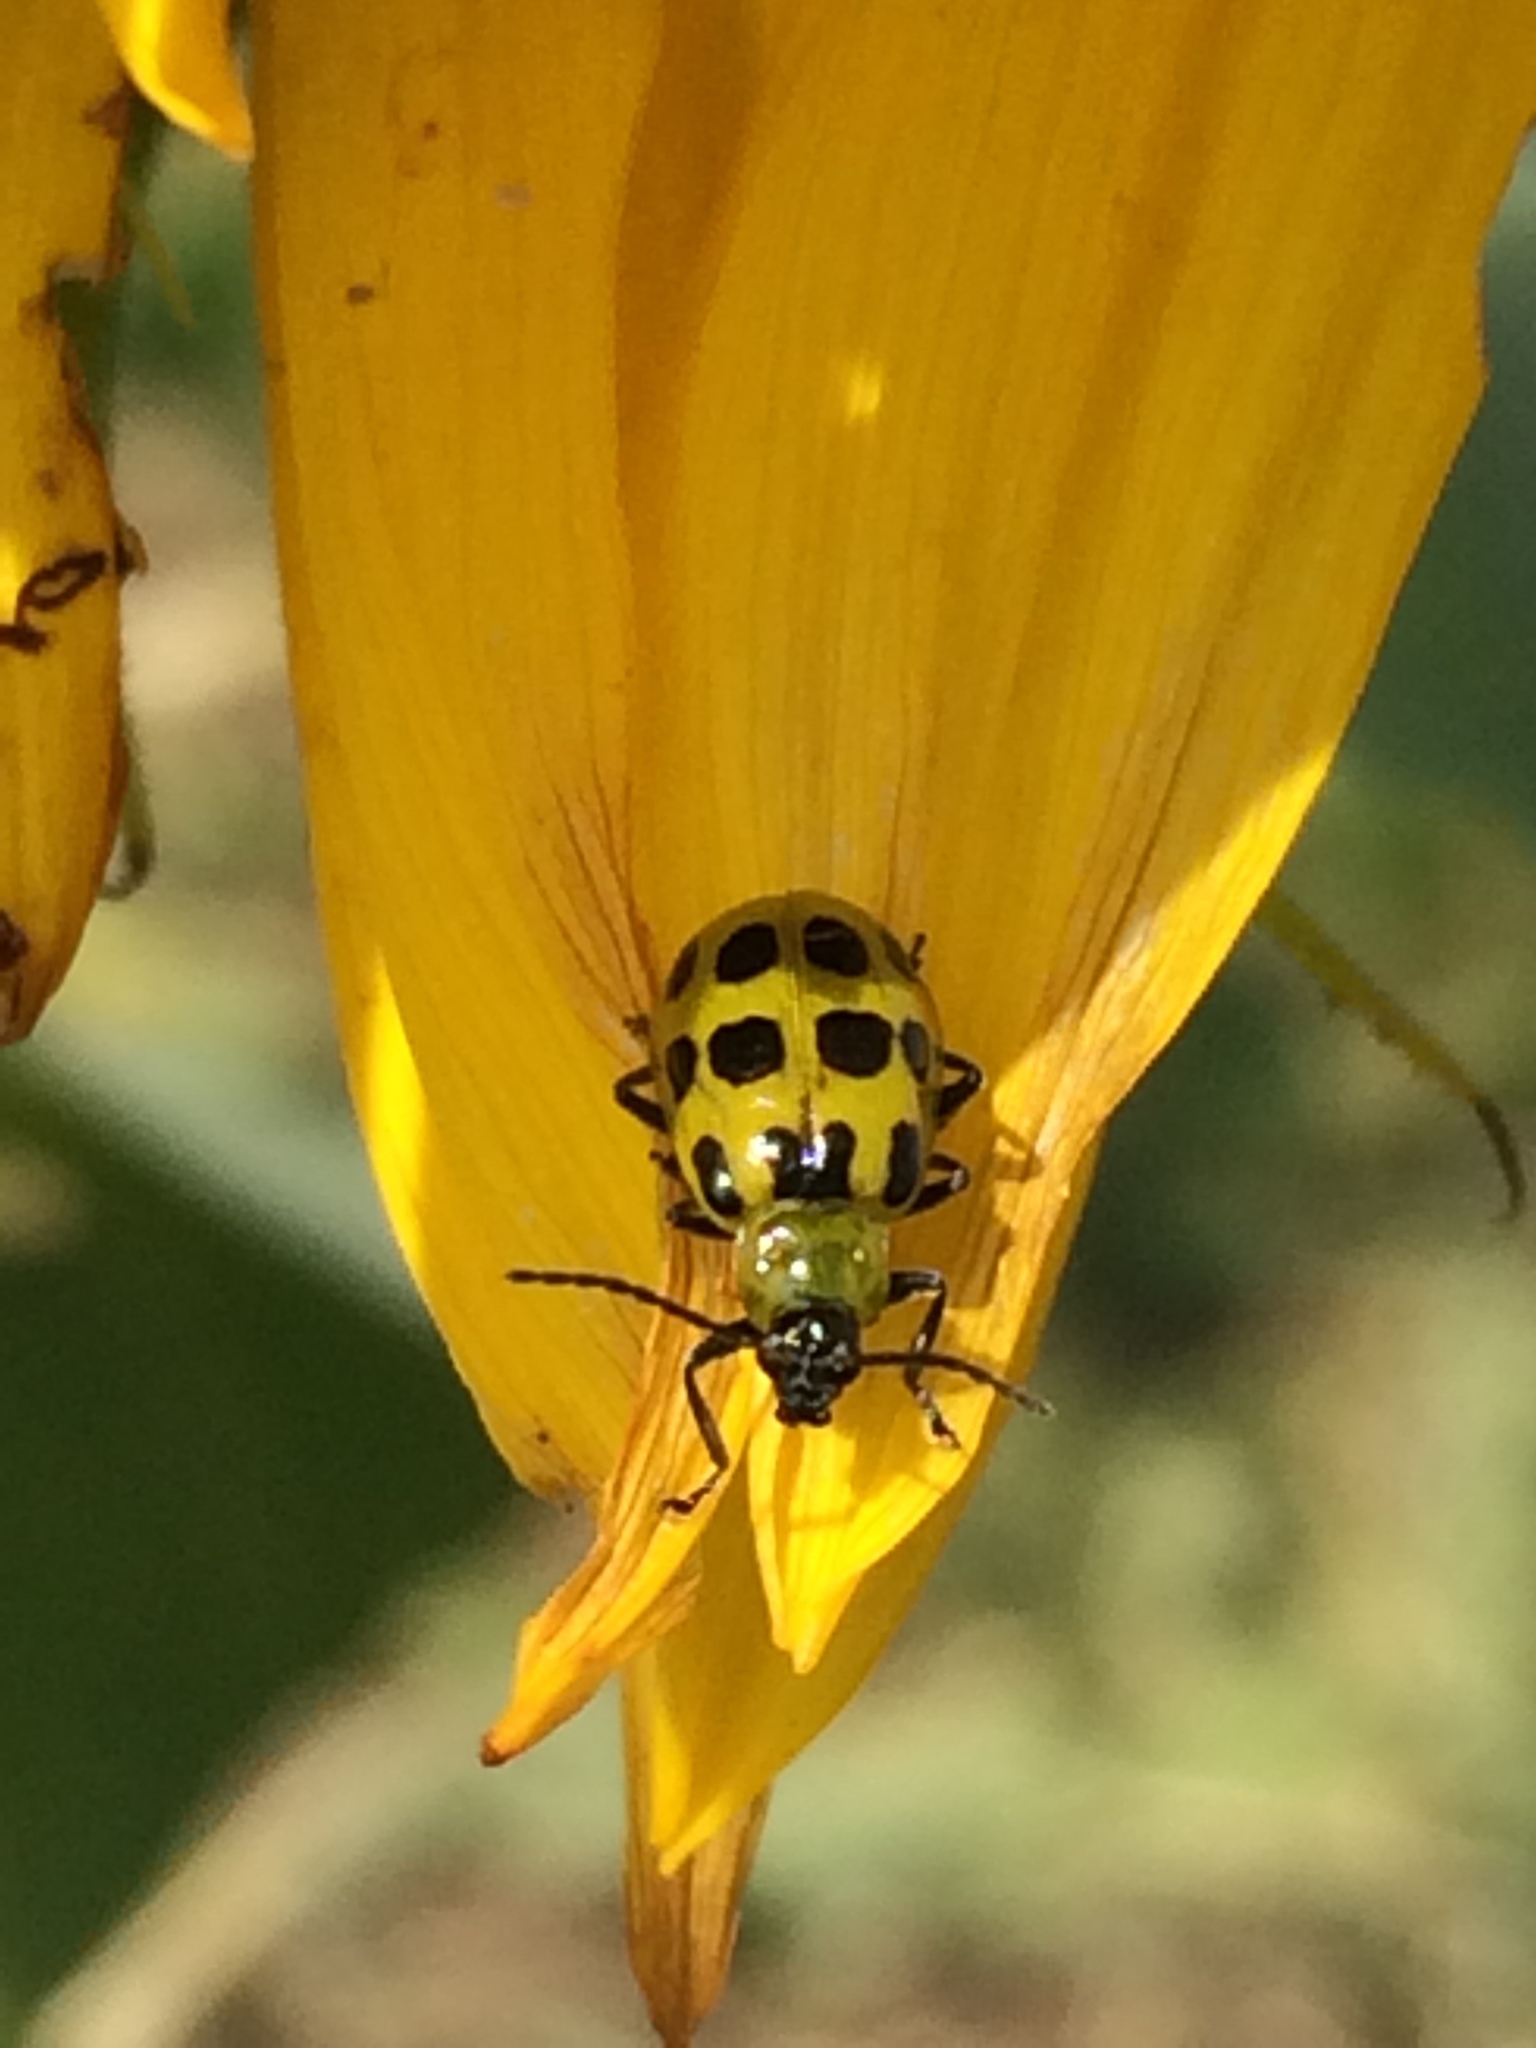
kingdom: Animalia
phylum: Arthropoda
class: Insecta
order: Coleoptera
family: Chrysomelidae
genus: Diabrotica
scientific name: Diabrotica undecimpunctata
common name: Spotted cucumber beetle
